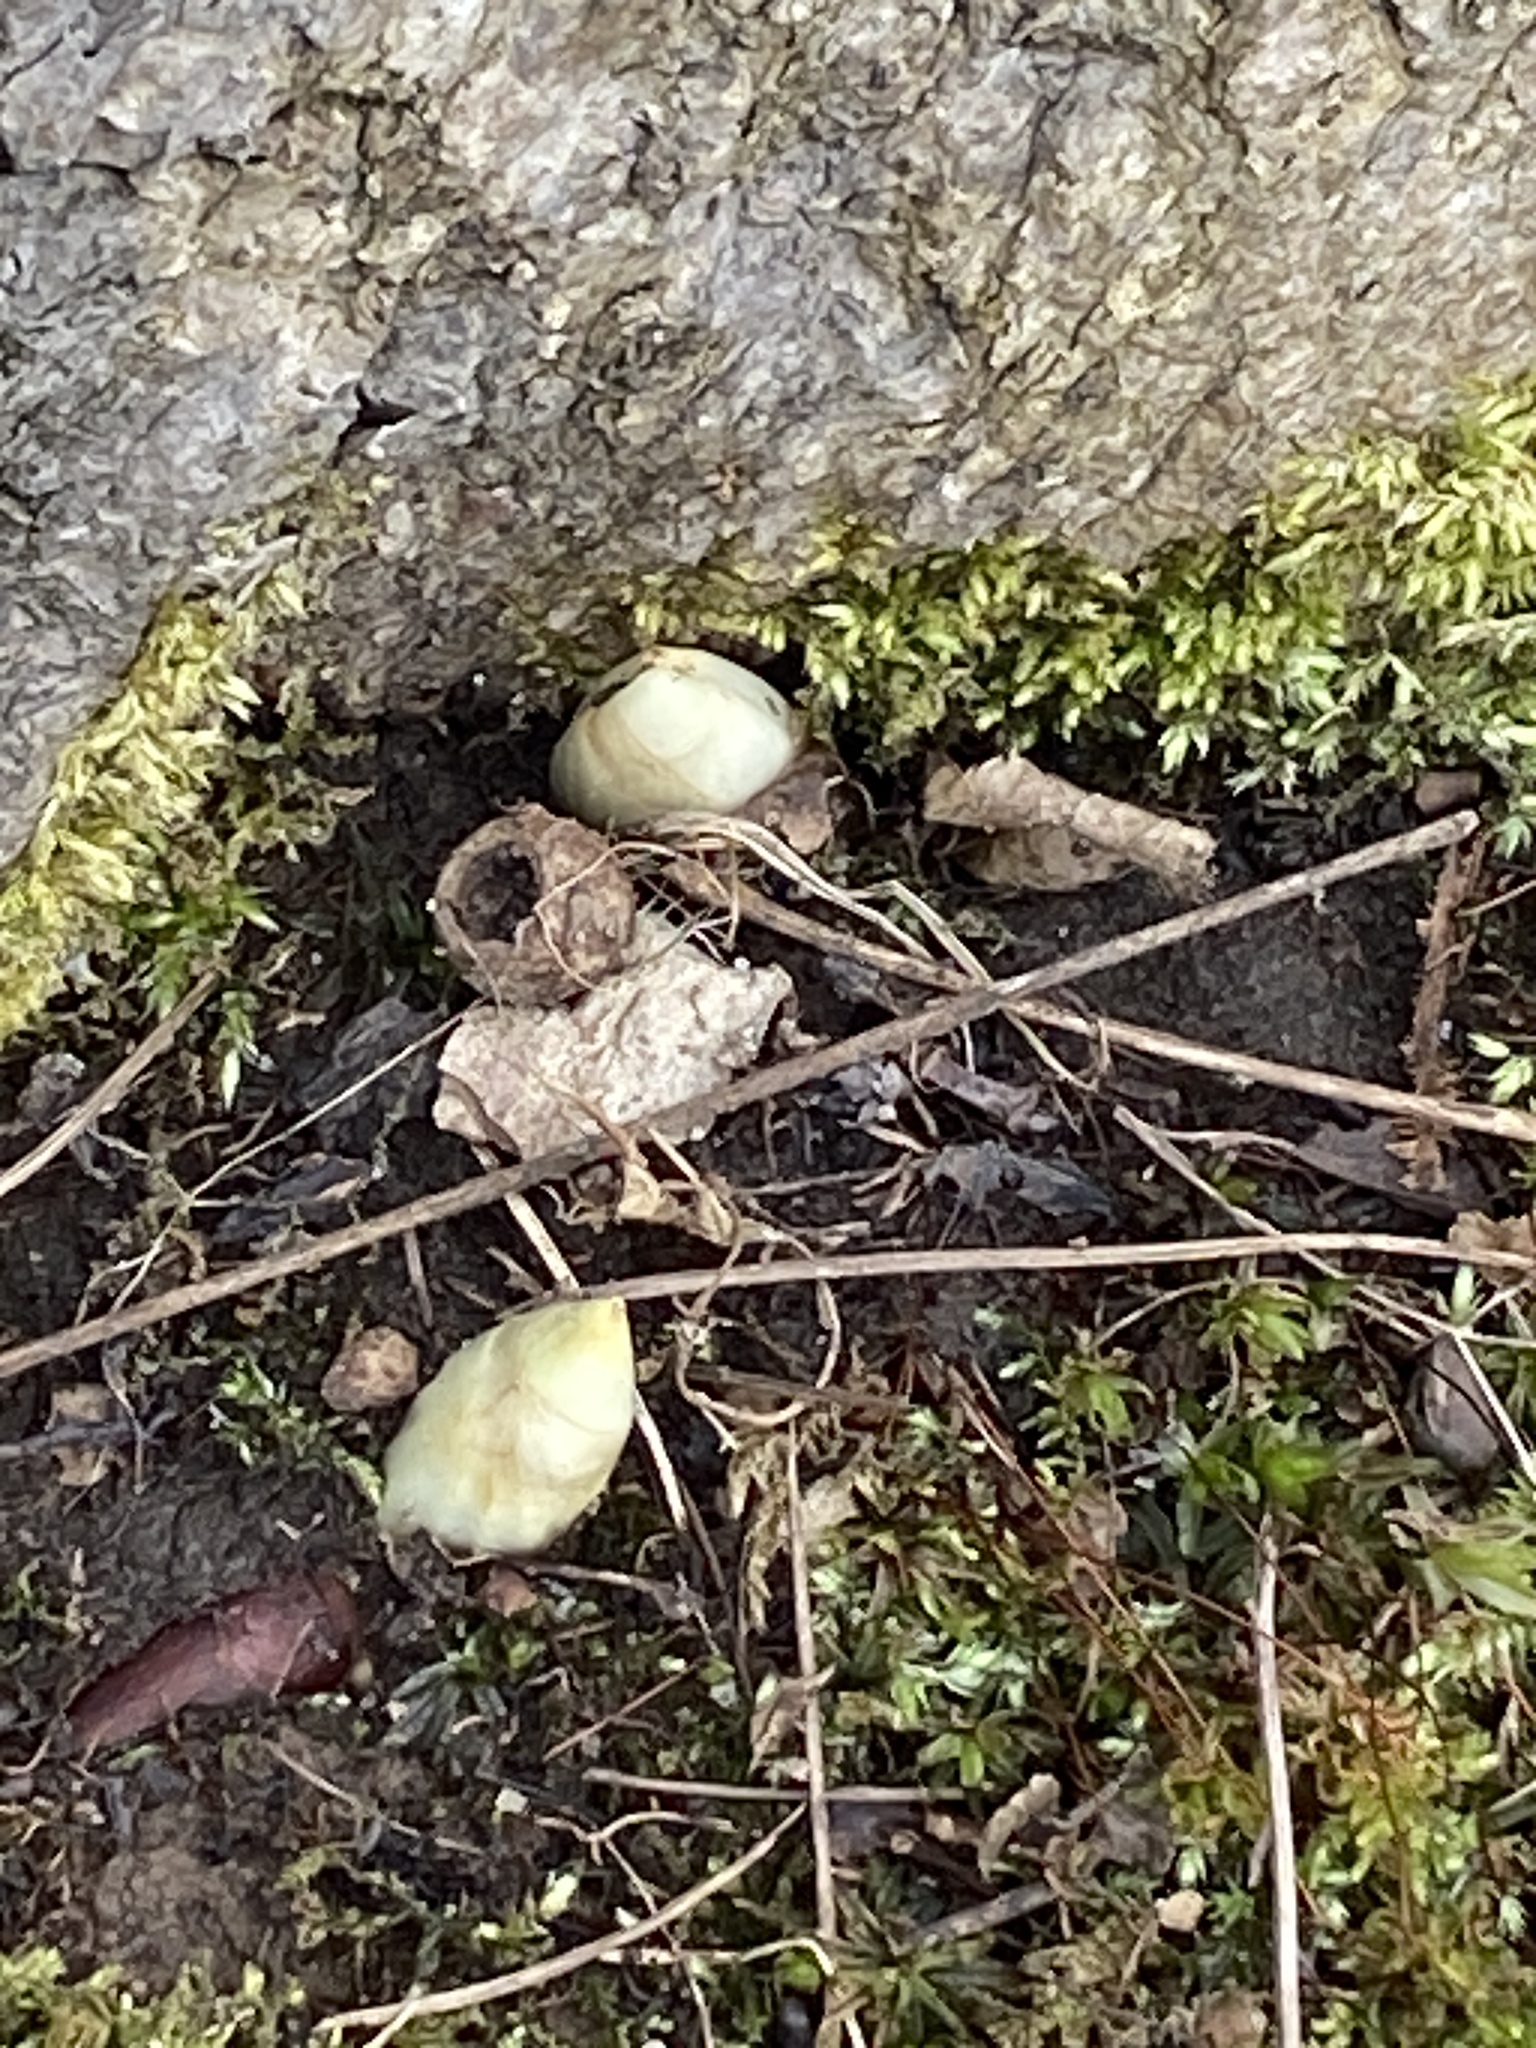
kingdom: Plantae
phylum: Tracheophyta
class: Magnoliopsida
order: Ranunculales
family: Berberidaceae
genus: Podophyllum
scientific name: Podophyllum peltatum
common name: Wild mandrake
